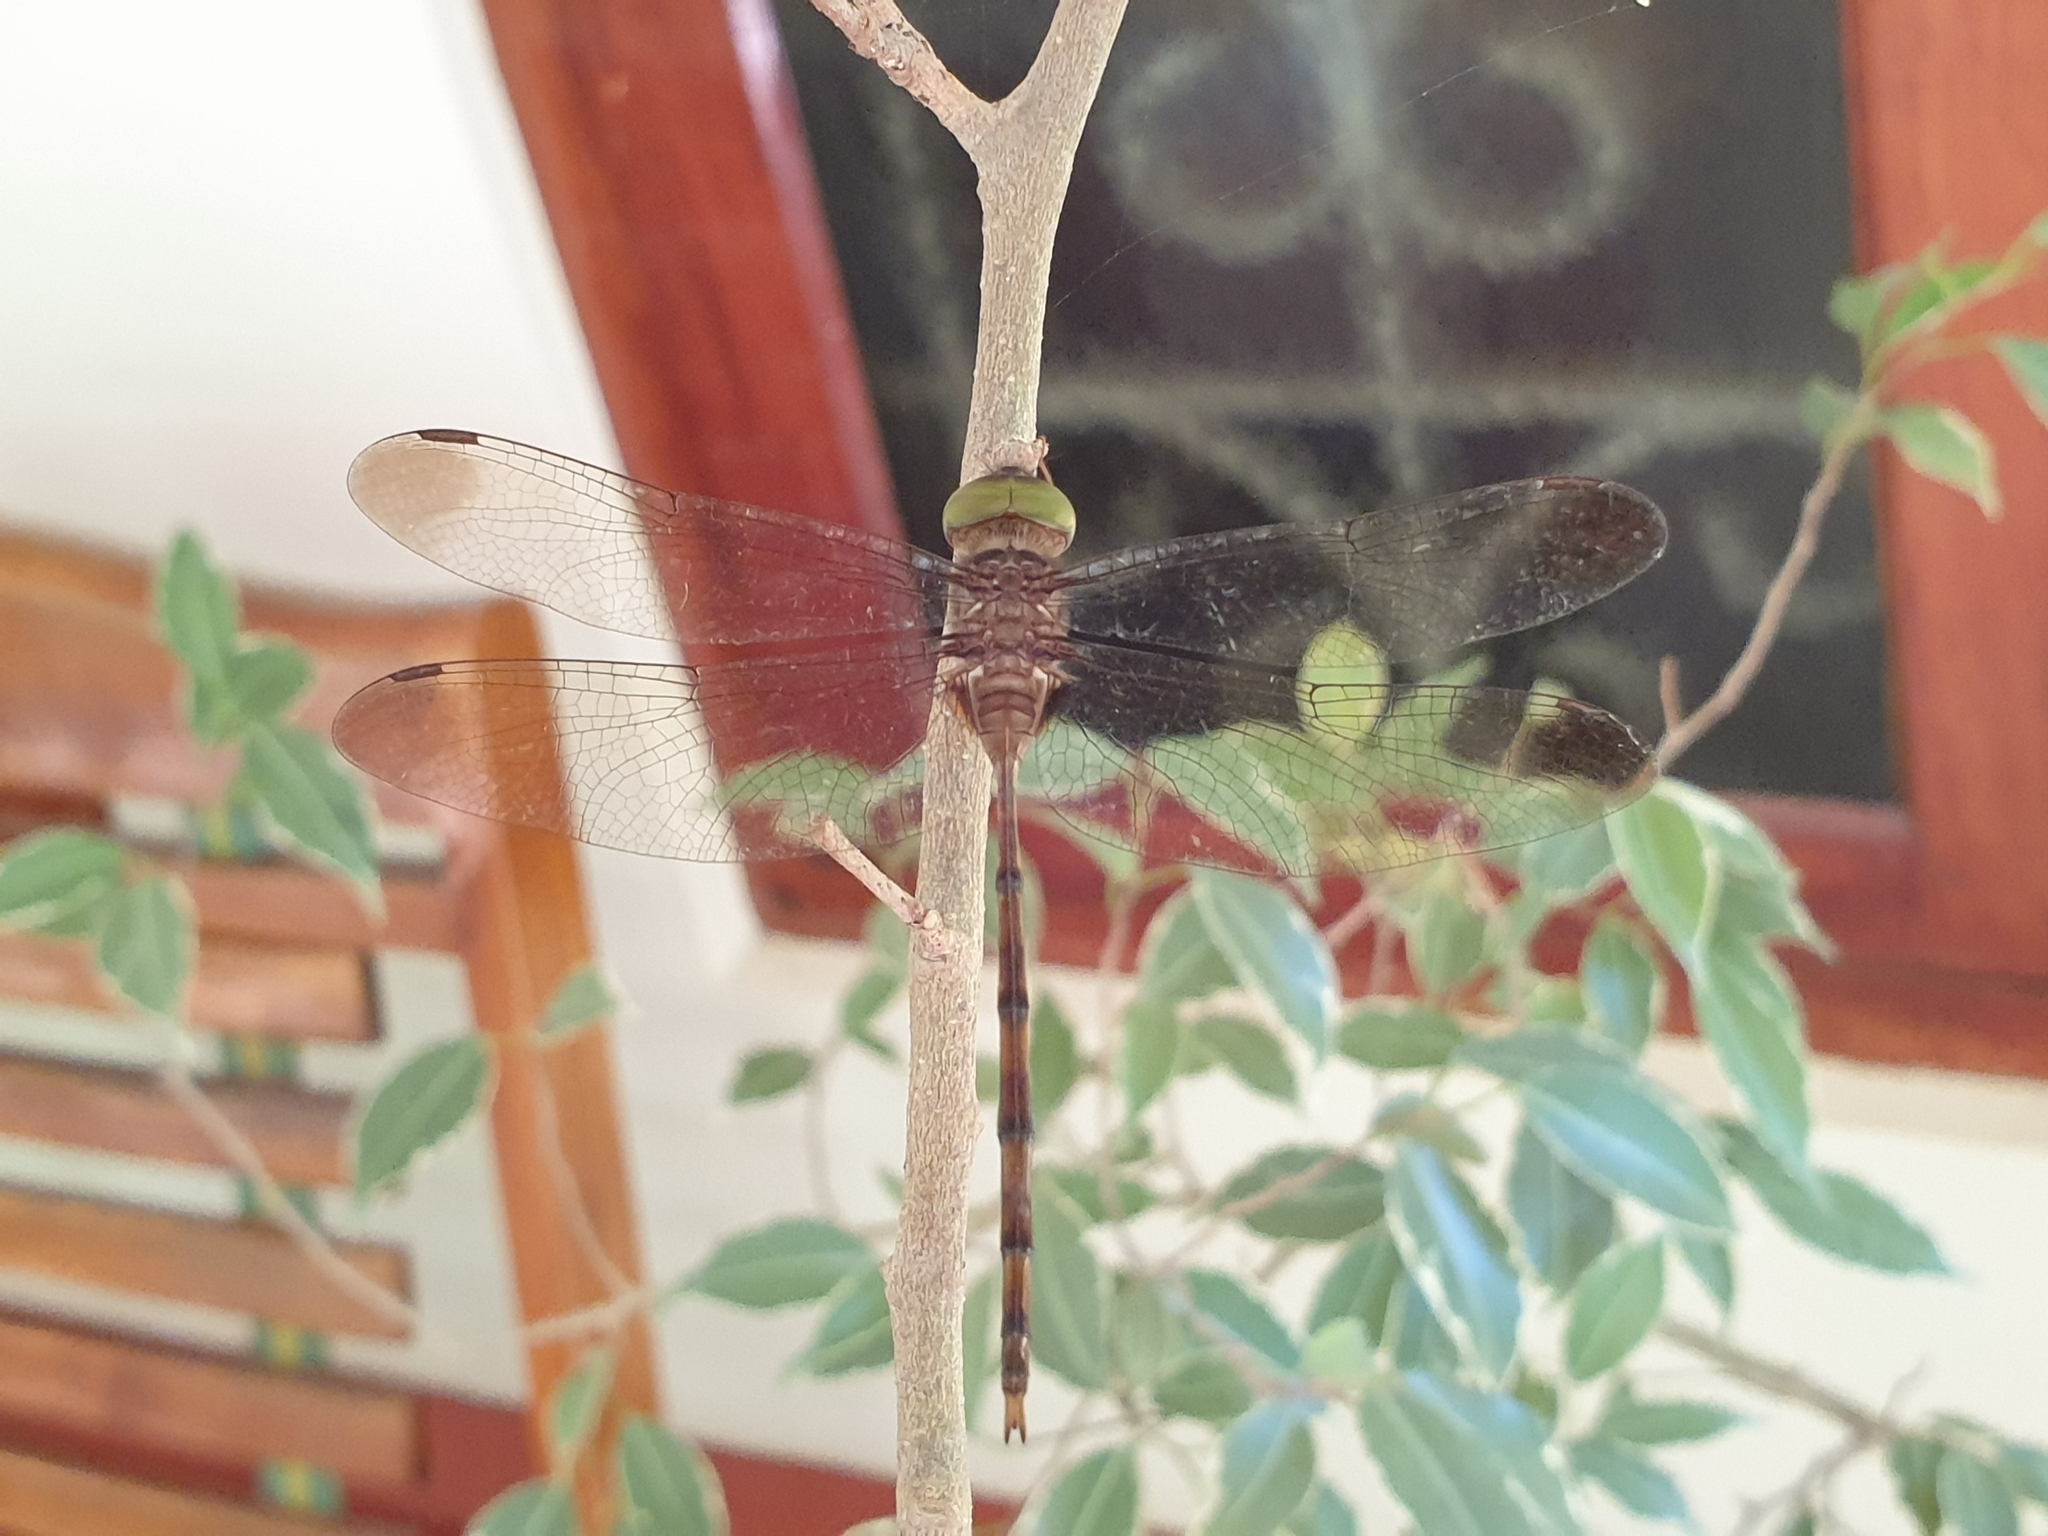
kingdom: Animalia
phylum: Arthropoda
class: Insecta
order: Odonata
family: Libellulidae
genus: Zyxomma
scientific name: Zyxomma petiolatum
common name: Dingy dusk-darter
